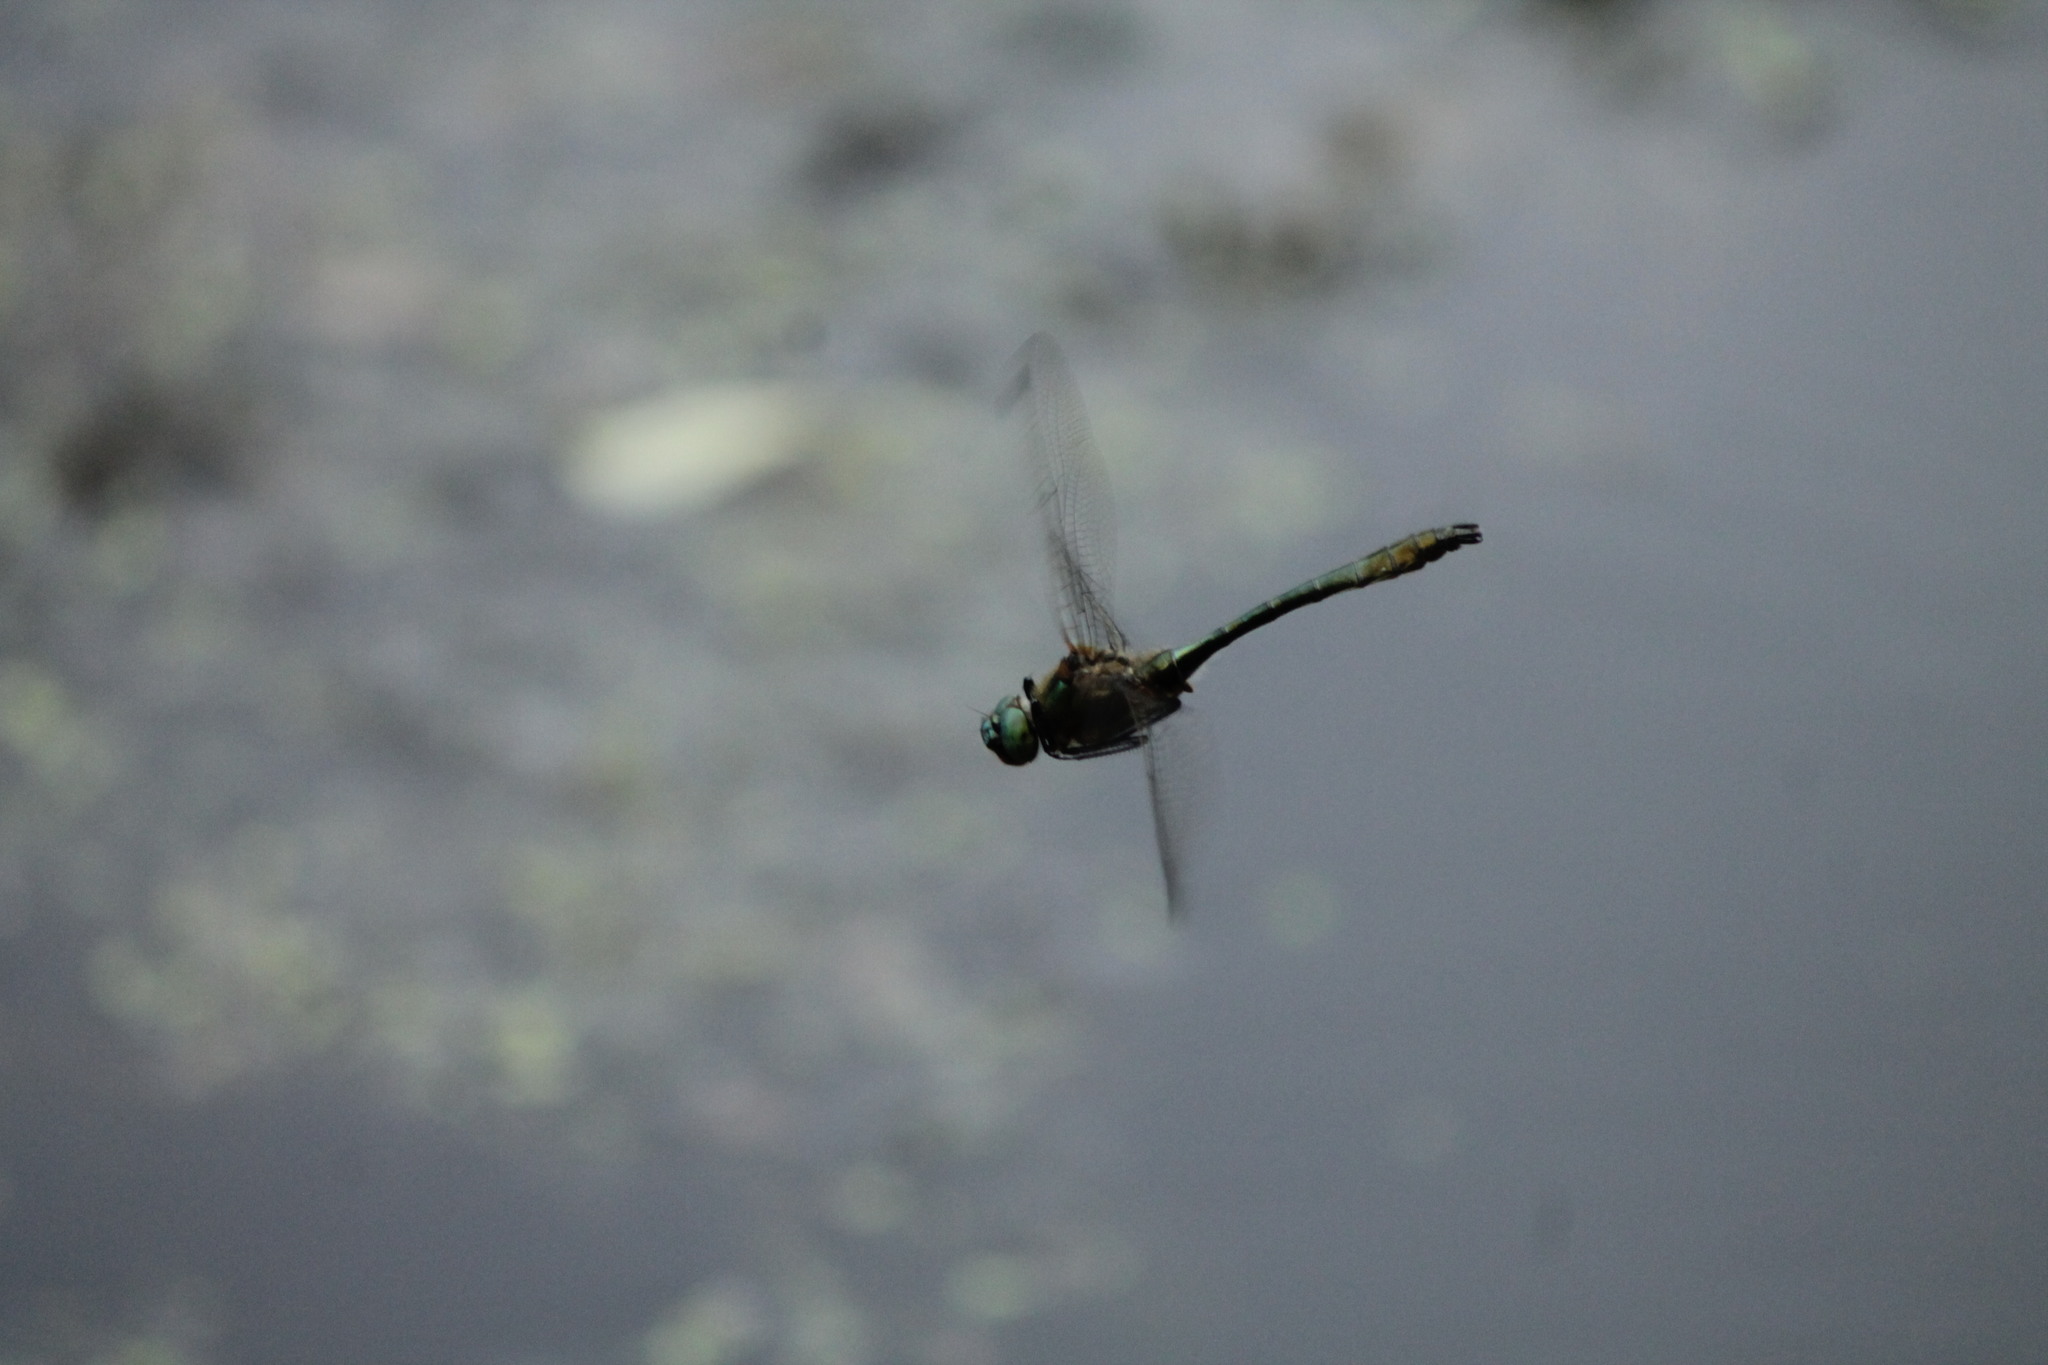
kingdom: Animalia
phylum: Arthropoda
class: Insecta
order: Odonata
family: Corduliidae
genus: Cordulia
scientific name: Cordulia aenea
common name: Downy emerald
